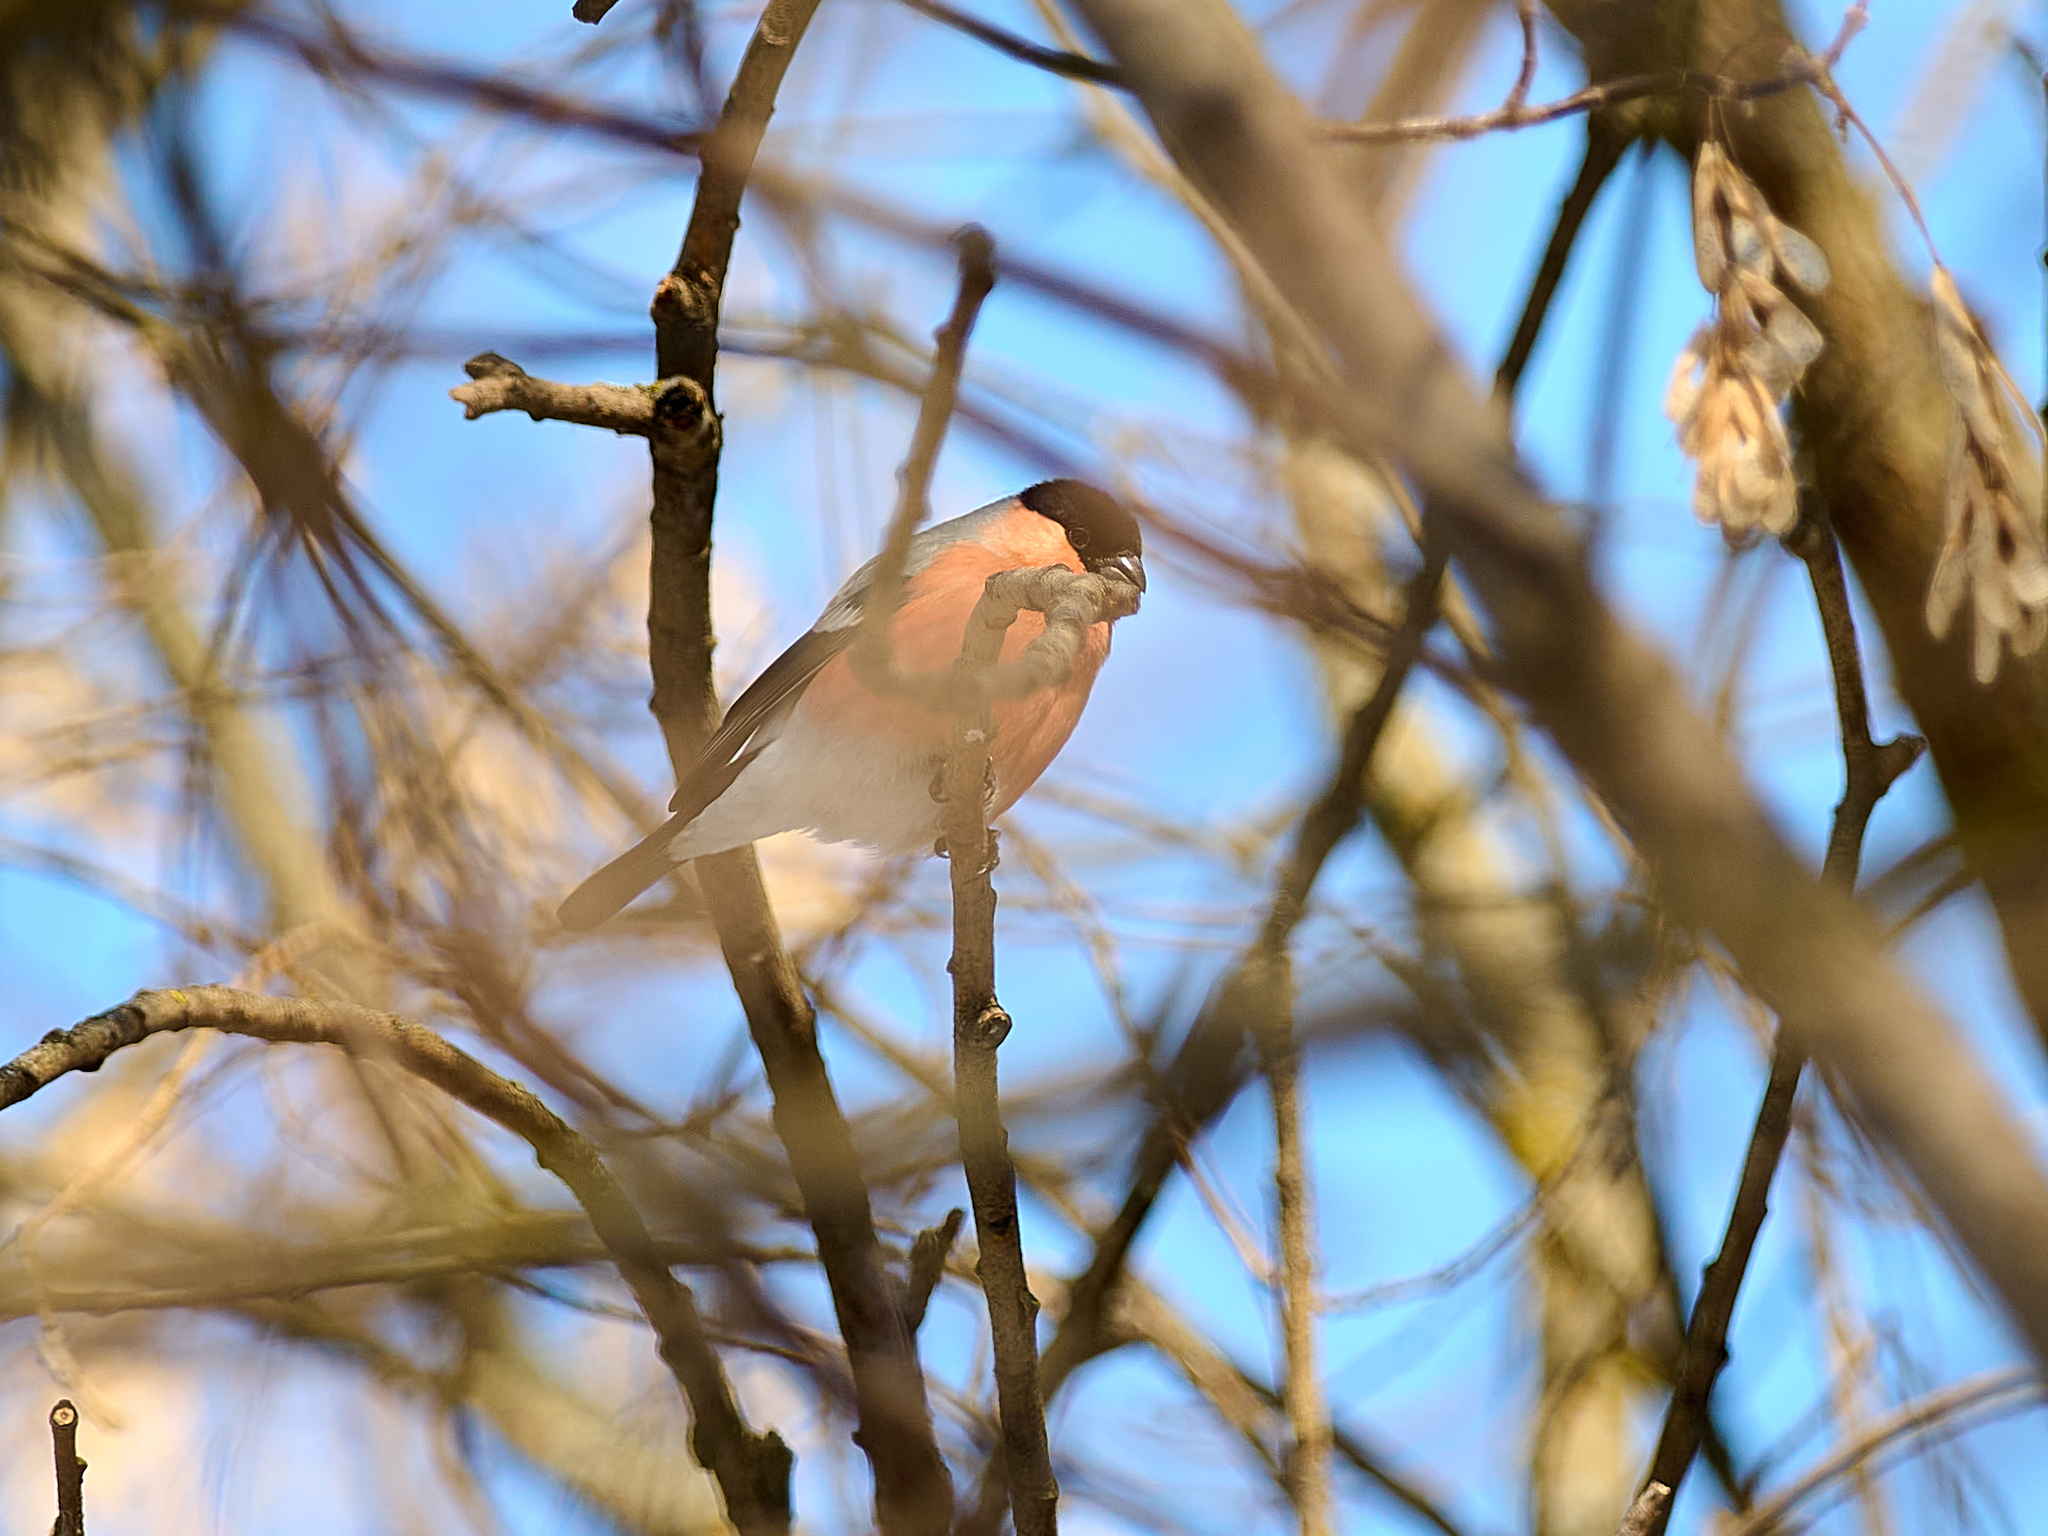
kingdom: Animalia
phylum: Chordata
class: Aves
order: Passeriformes
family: Fringillidae
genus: Pyrrhula
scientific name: Pyrrhula pyrrhula
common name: Eurasian bullfinch
